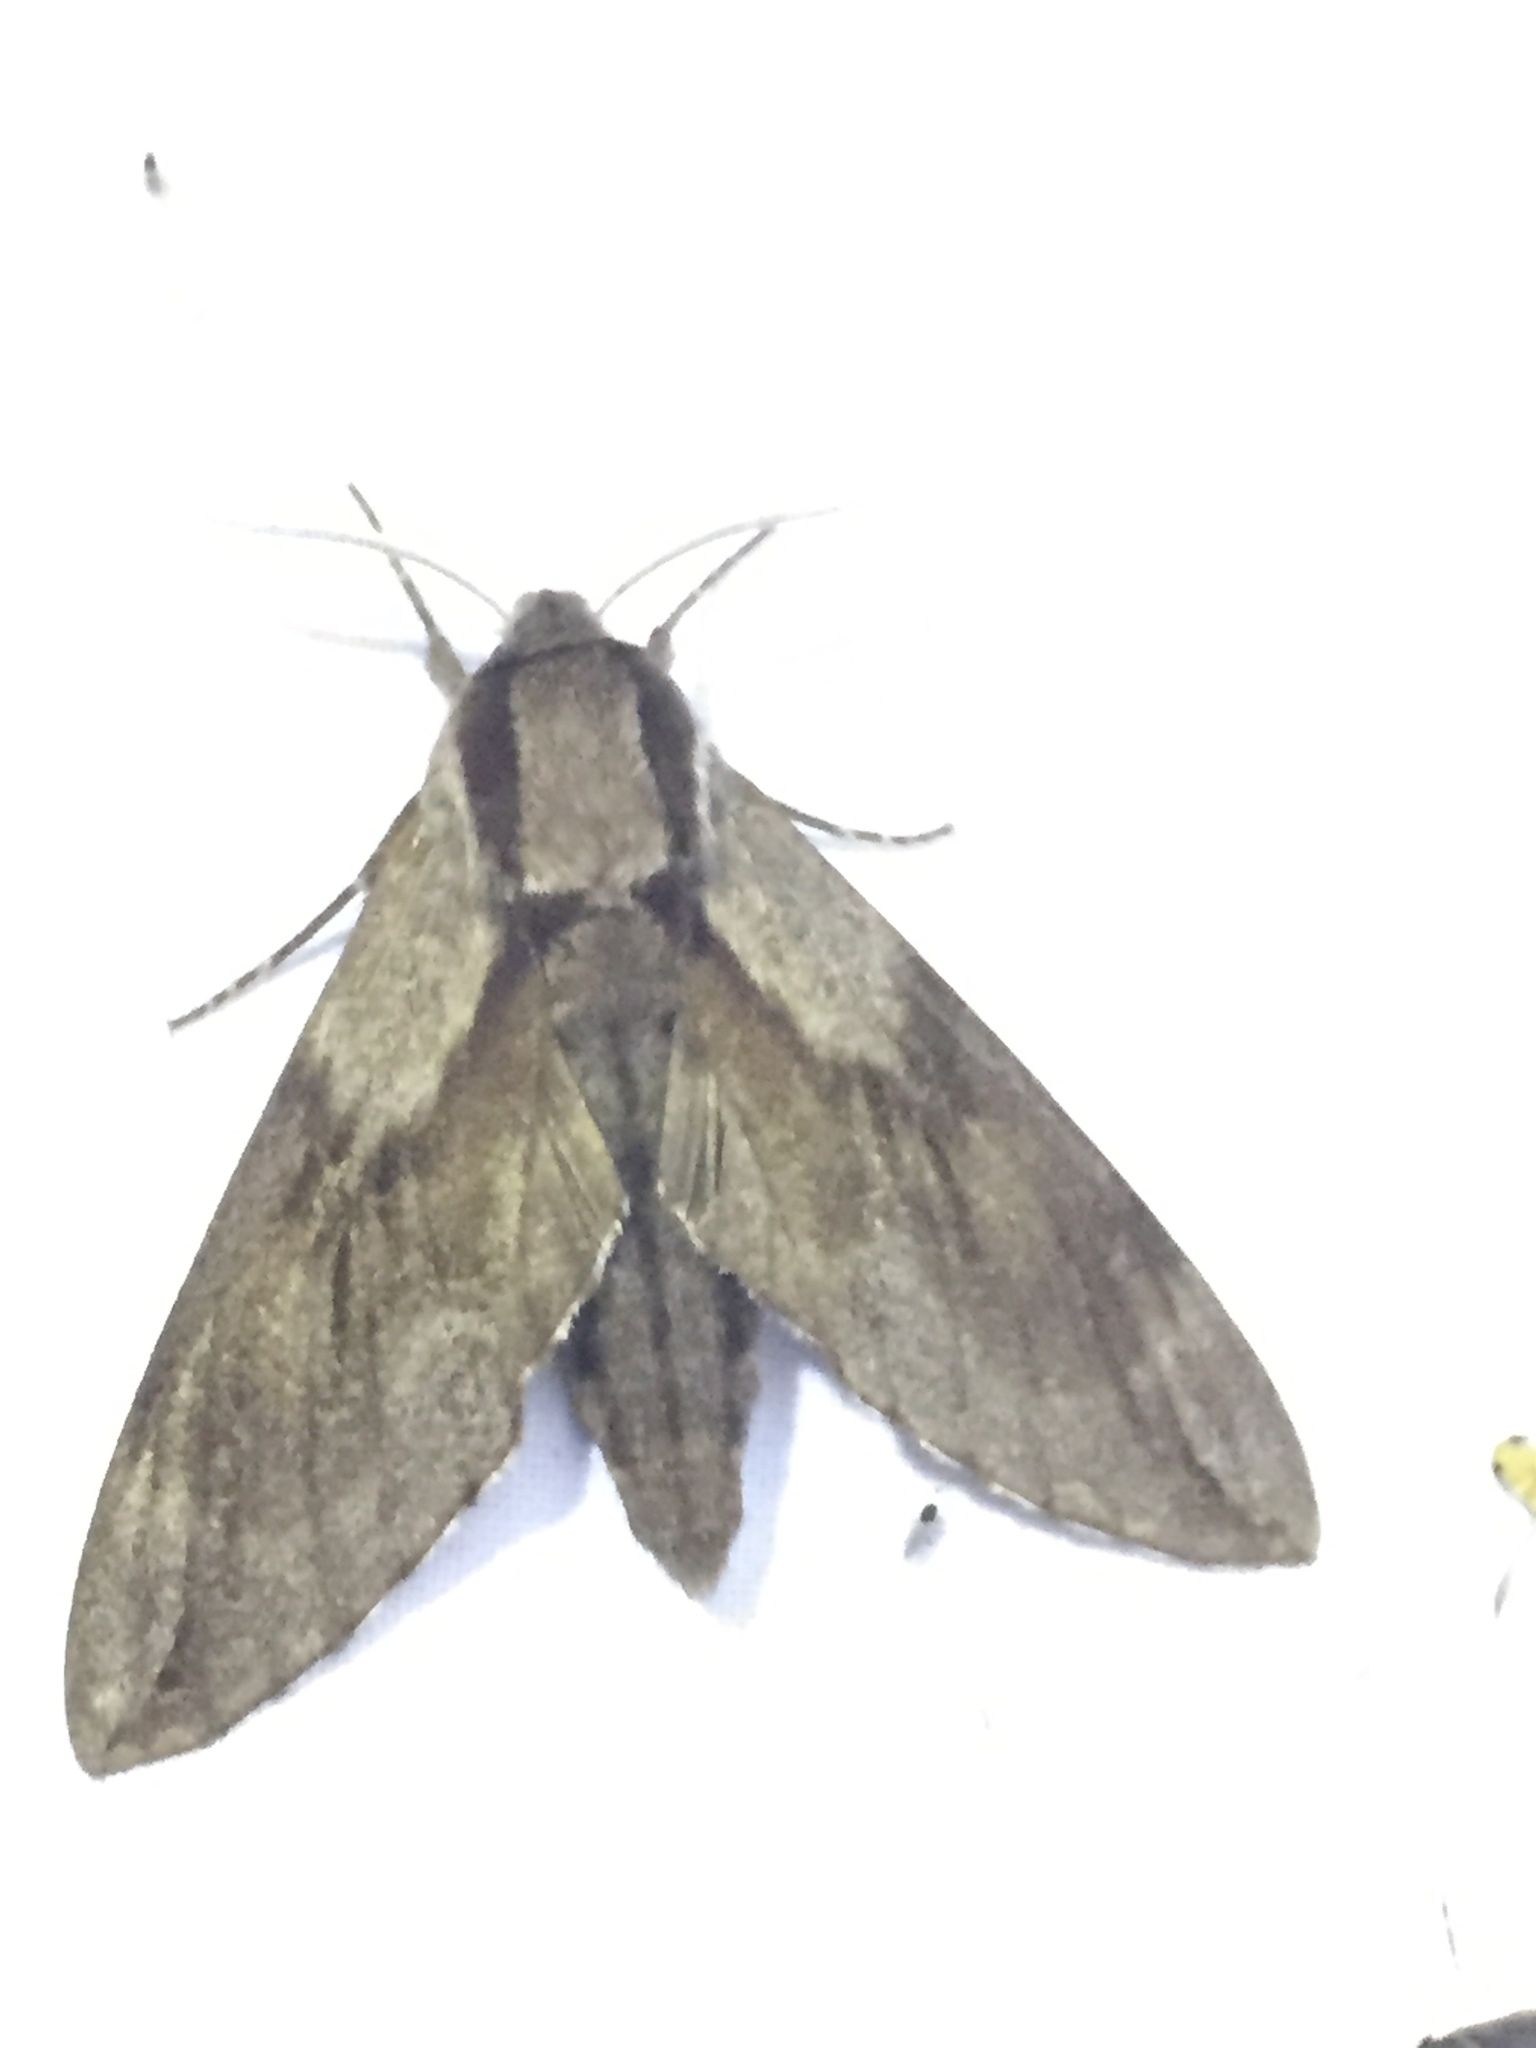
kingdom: Animalia
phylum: Arthropoda
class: Insecta
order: Lepidoptera
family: Sphingidae
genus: Sphinx
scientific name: Sphinx pinastri
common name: Pine hawk-moth
